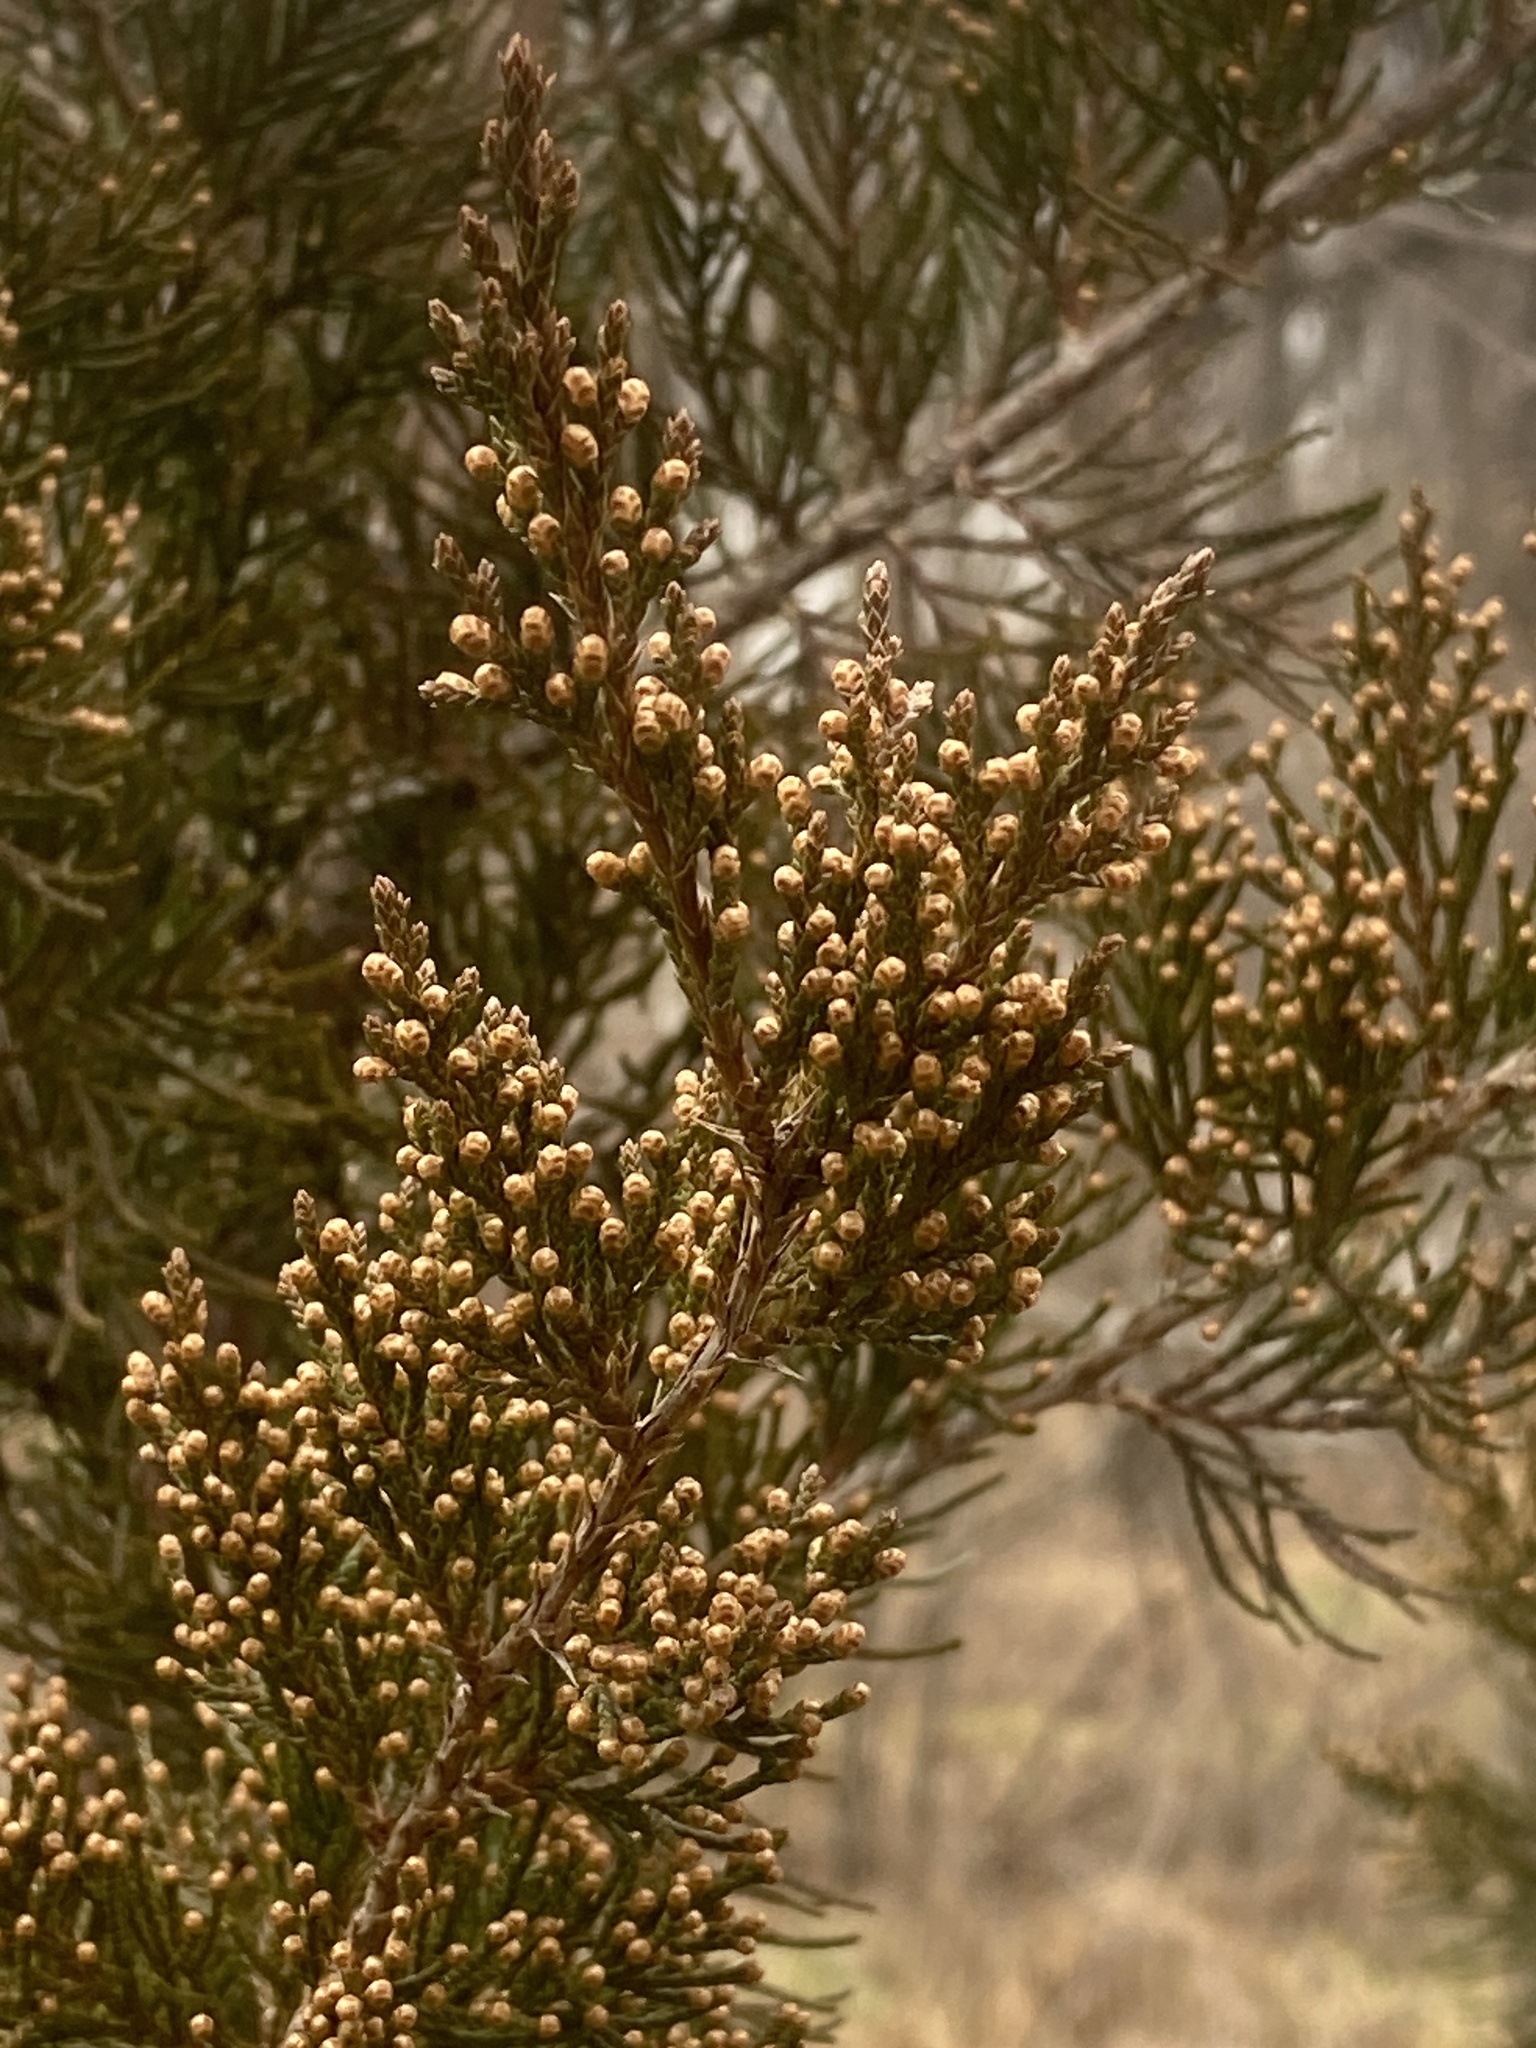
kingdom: Plantae
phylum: Tracheophyta
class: Pinopsida
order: Pinales
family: Cupressaceae
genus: Juniperus
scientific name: Juniperus virginiana
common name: Red juniper
